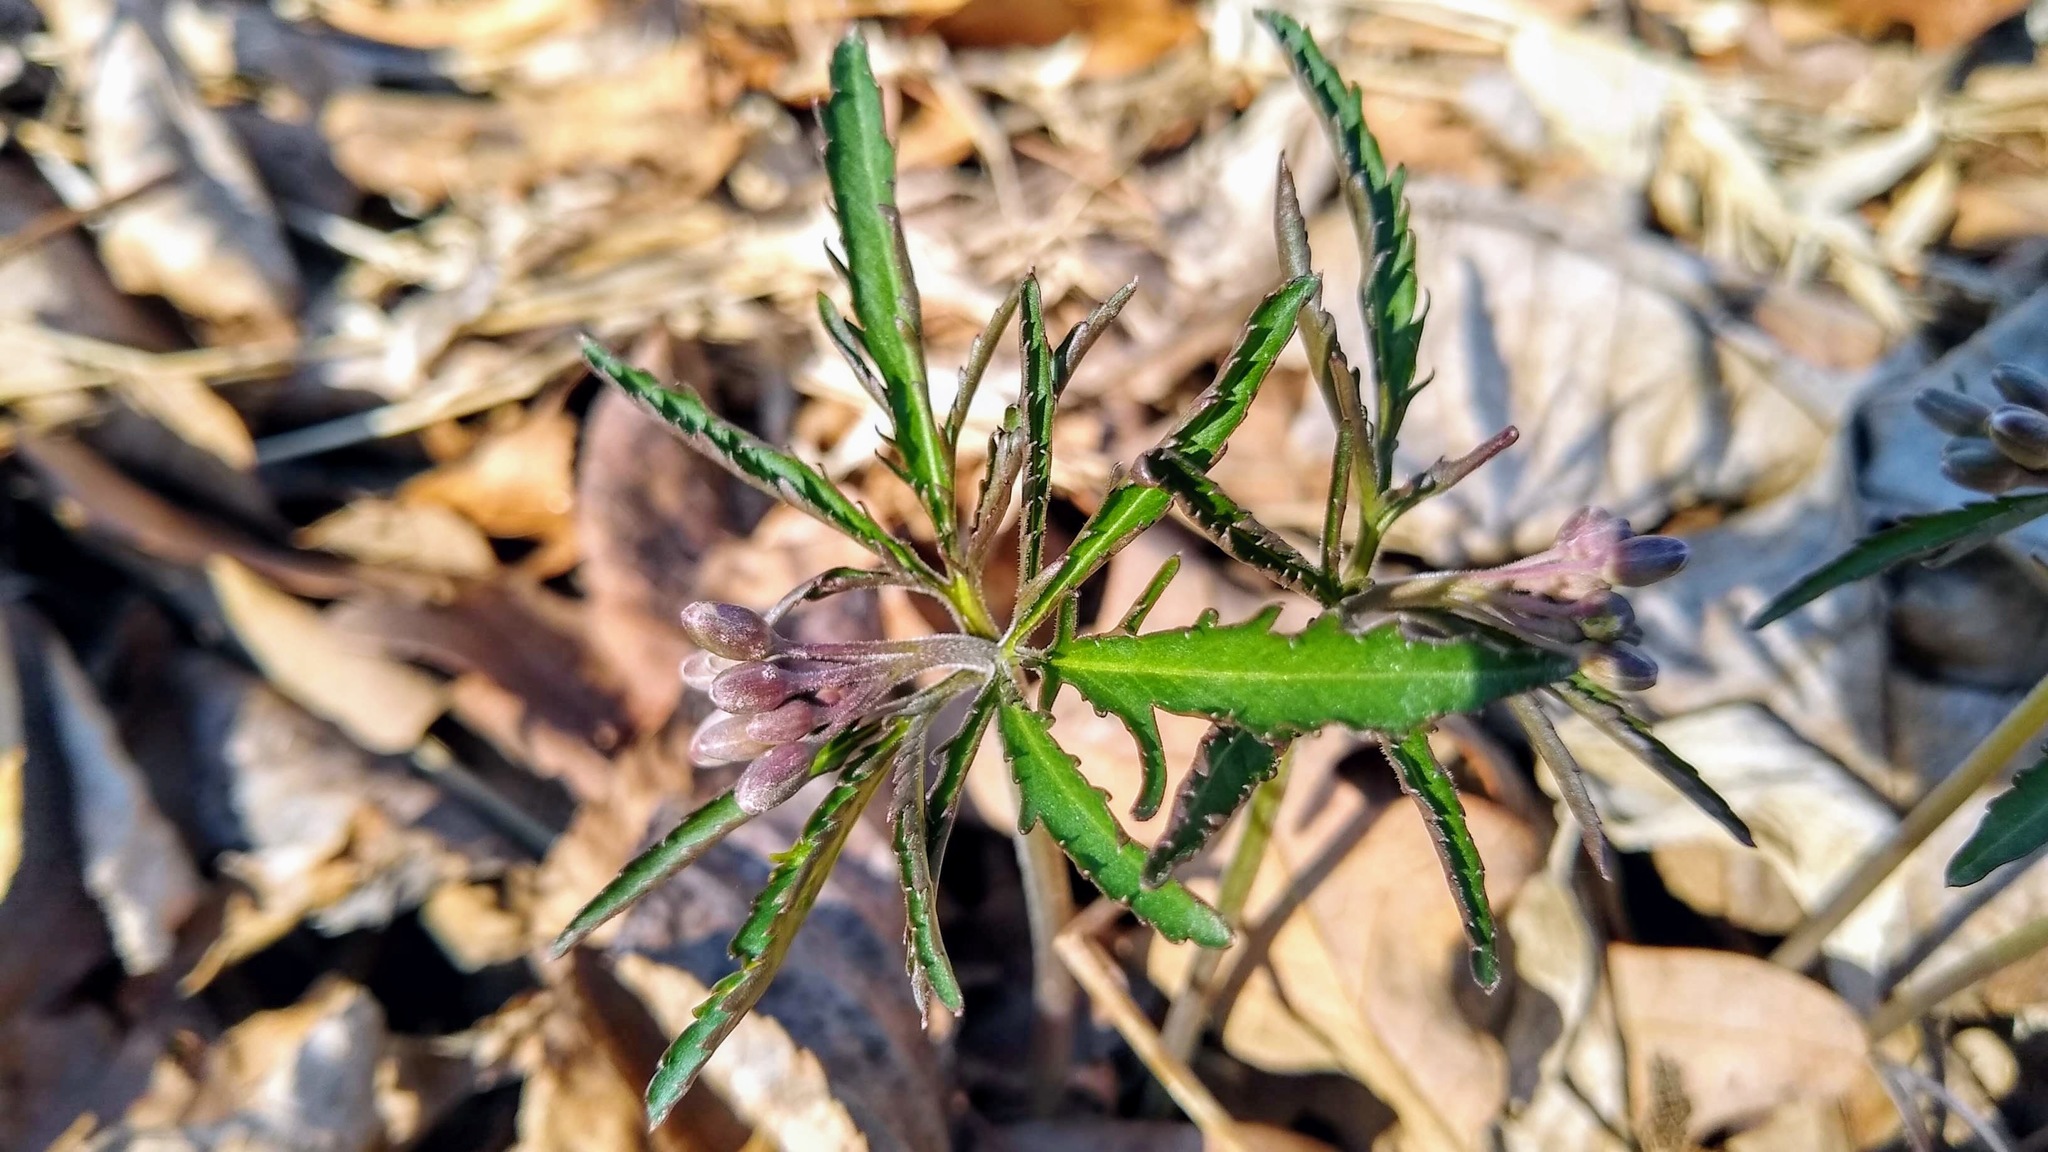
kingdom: Plantae
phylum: Tracheophyta
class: Magnoliopsida
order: Brassicales
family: Brassicaceae
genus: Cardamine
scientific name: Cardamine concatenata
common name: Cut-leaf toothcup
